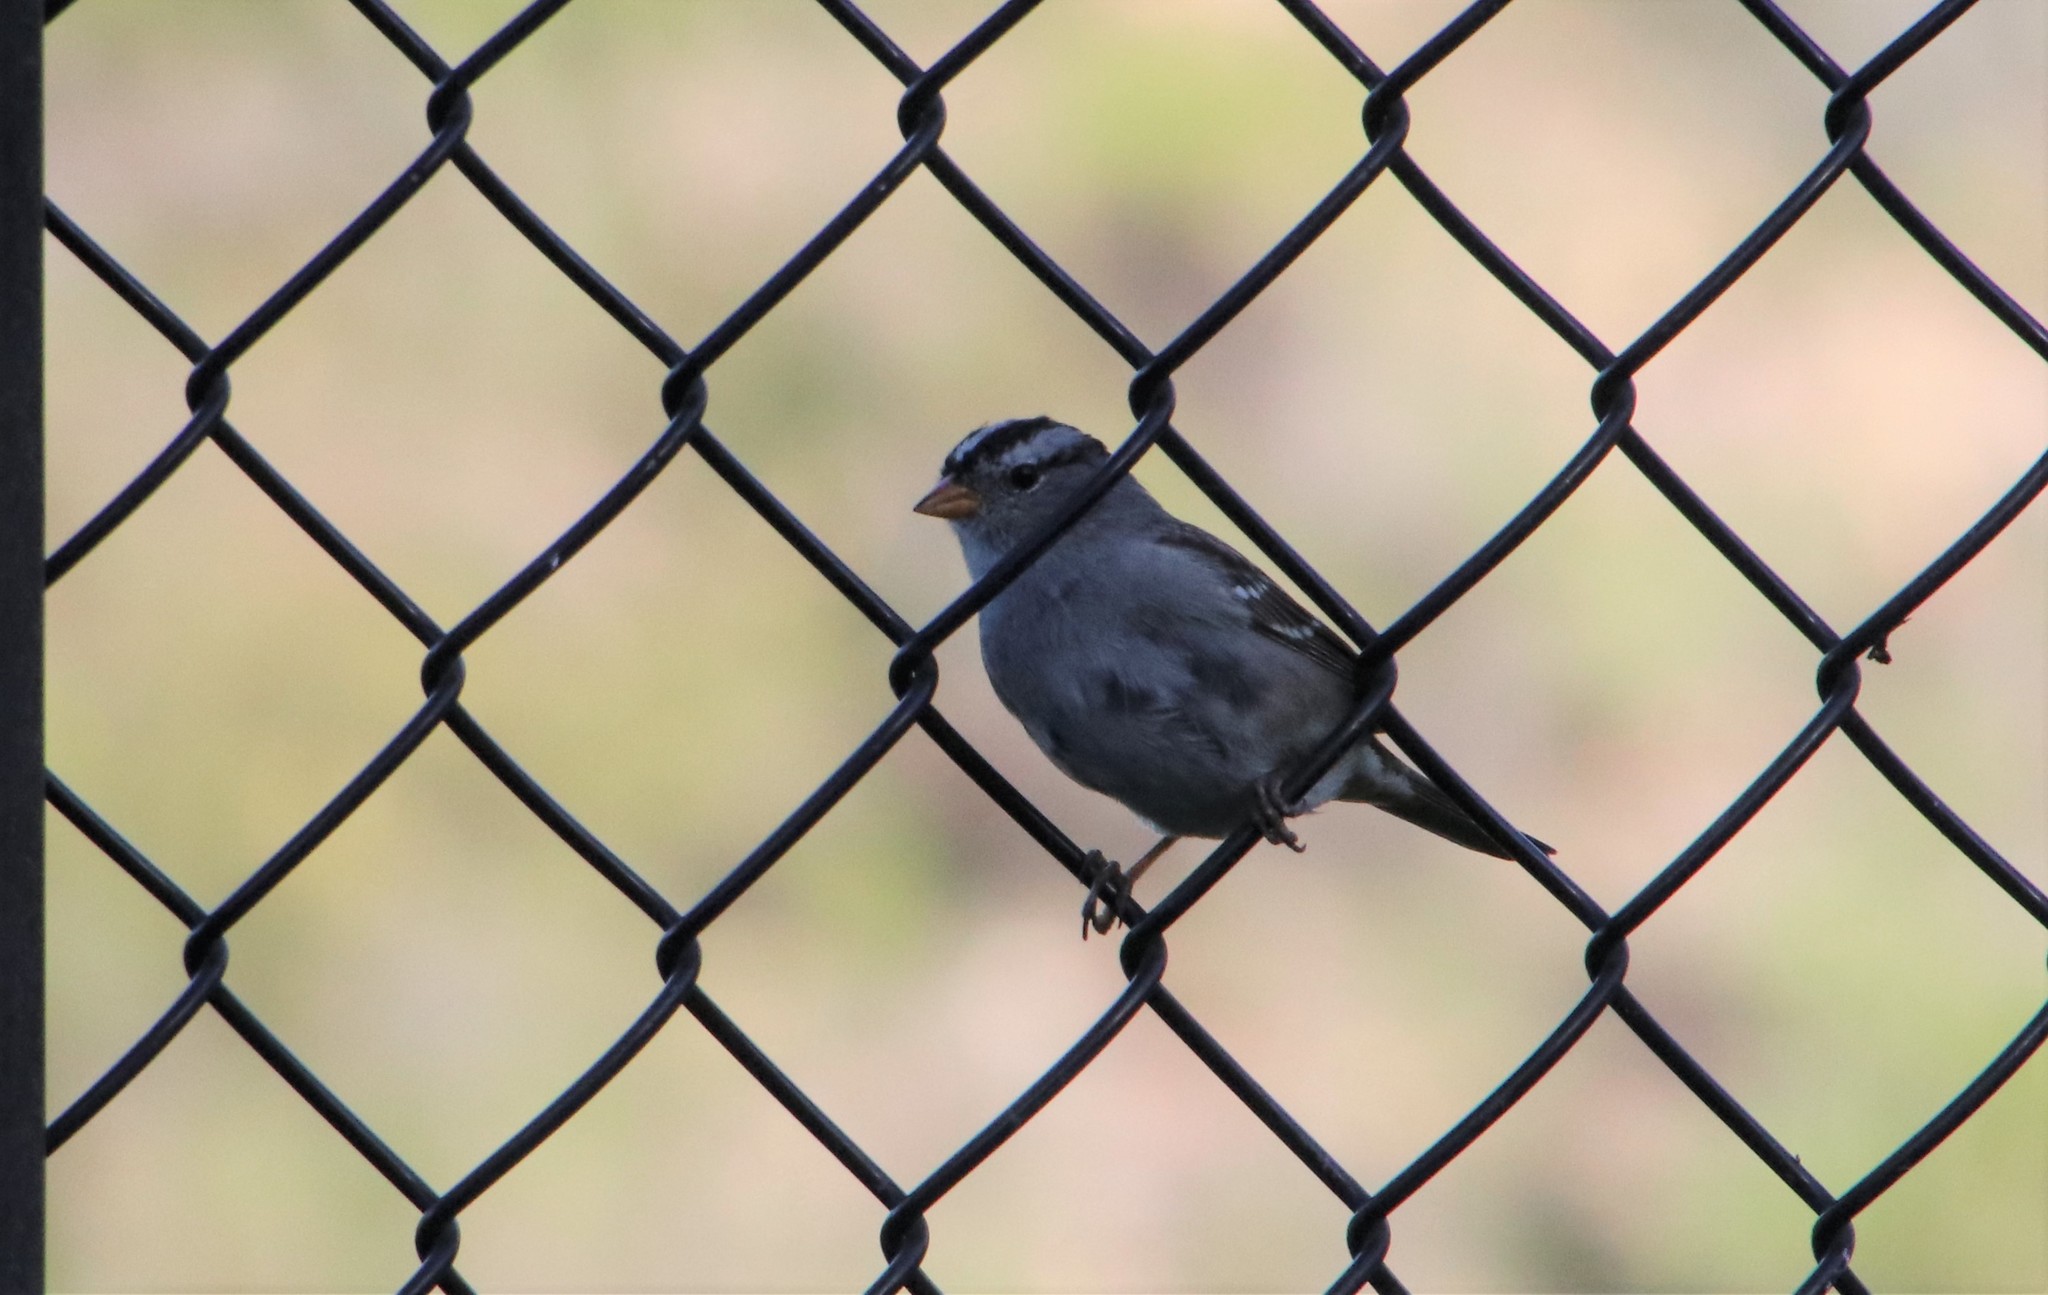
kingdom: Animalia
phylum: Chordata
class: Aves
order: Passeriformes
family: Passerellidae
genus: Zonotrichia
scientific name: Zonotrichia leucophrys
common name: White-crowned sparrow
